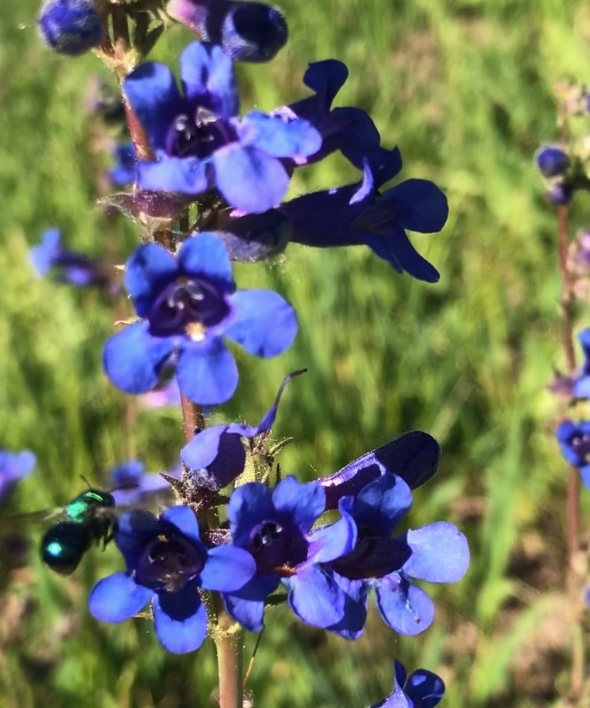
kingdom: Plantae
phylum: Tracheophyta
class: Magnoliopsida
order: Lamiales
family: Plantaginaceae
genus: Penstemon
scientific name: Penstemon mensarum
